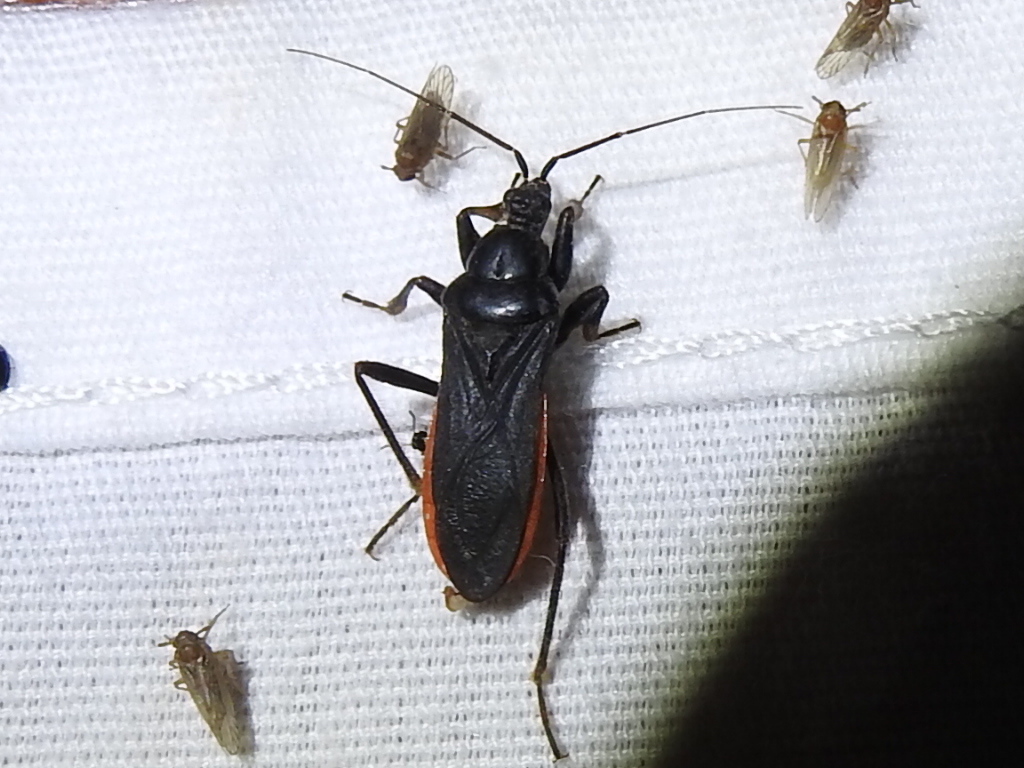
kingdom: Animalia
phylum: Arthropoda
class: Insecta
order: Hemiptera
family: Reduviidae
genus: Melanolestes
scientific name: Melanolestes picipes
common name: Assassin bug
